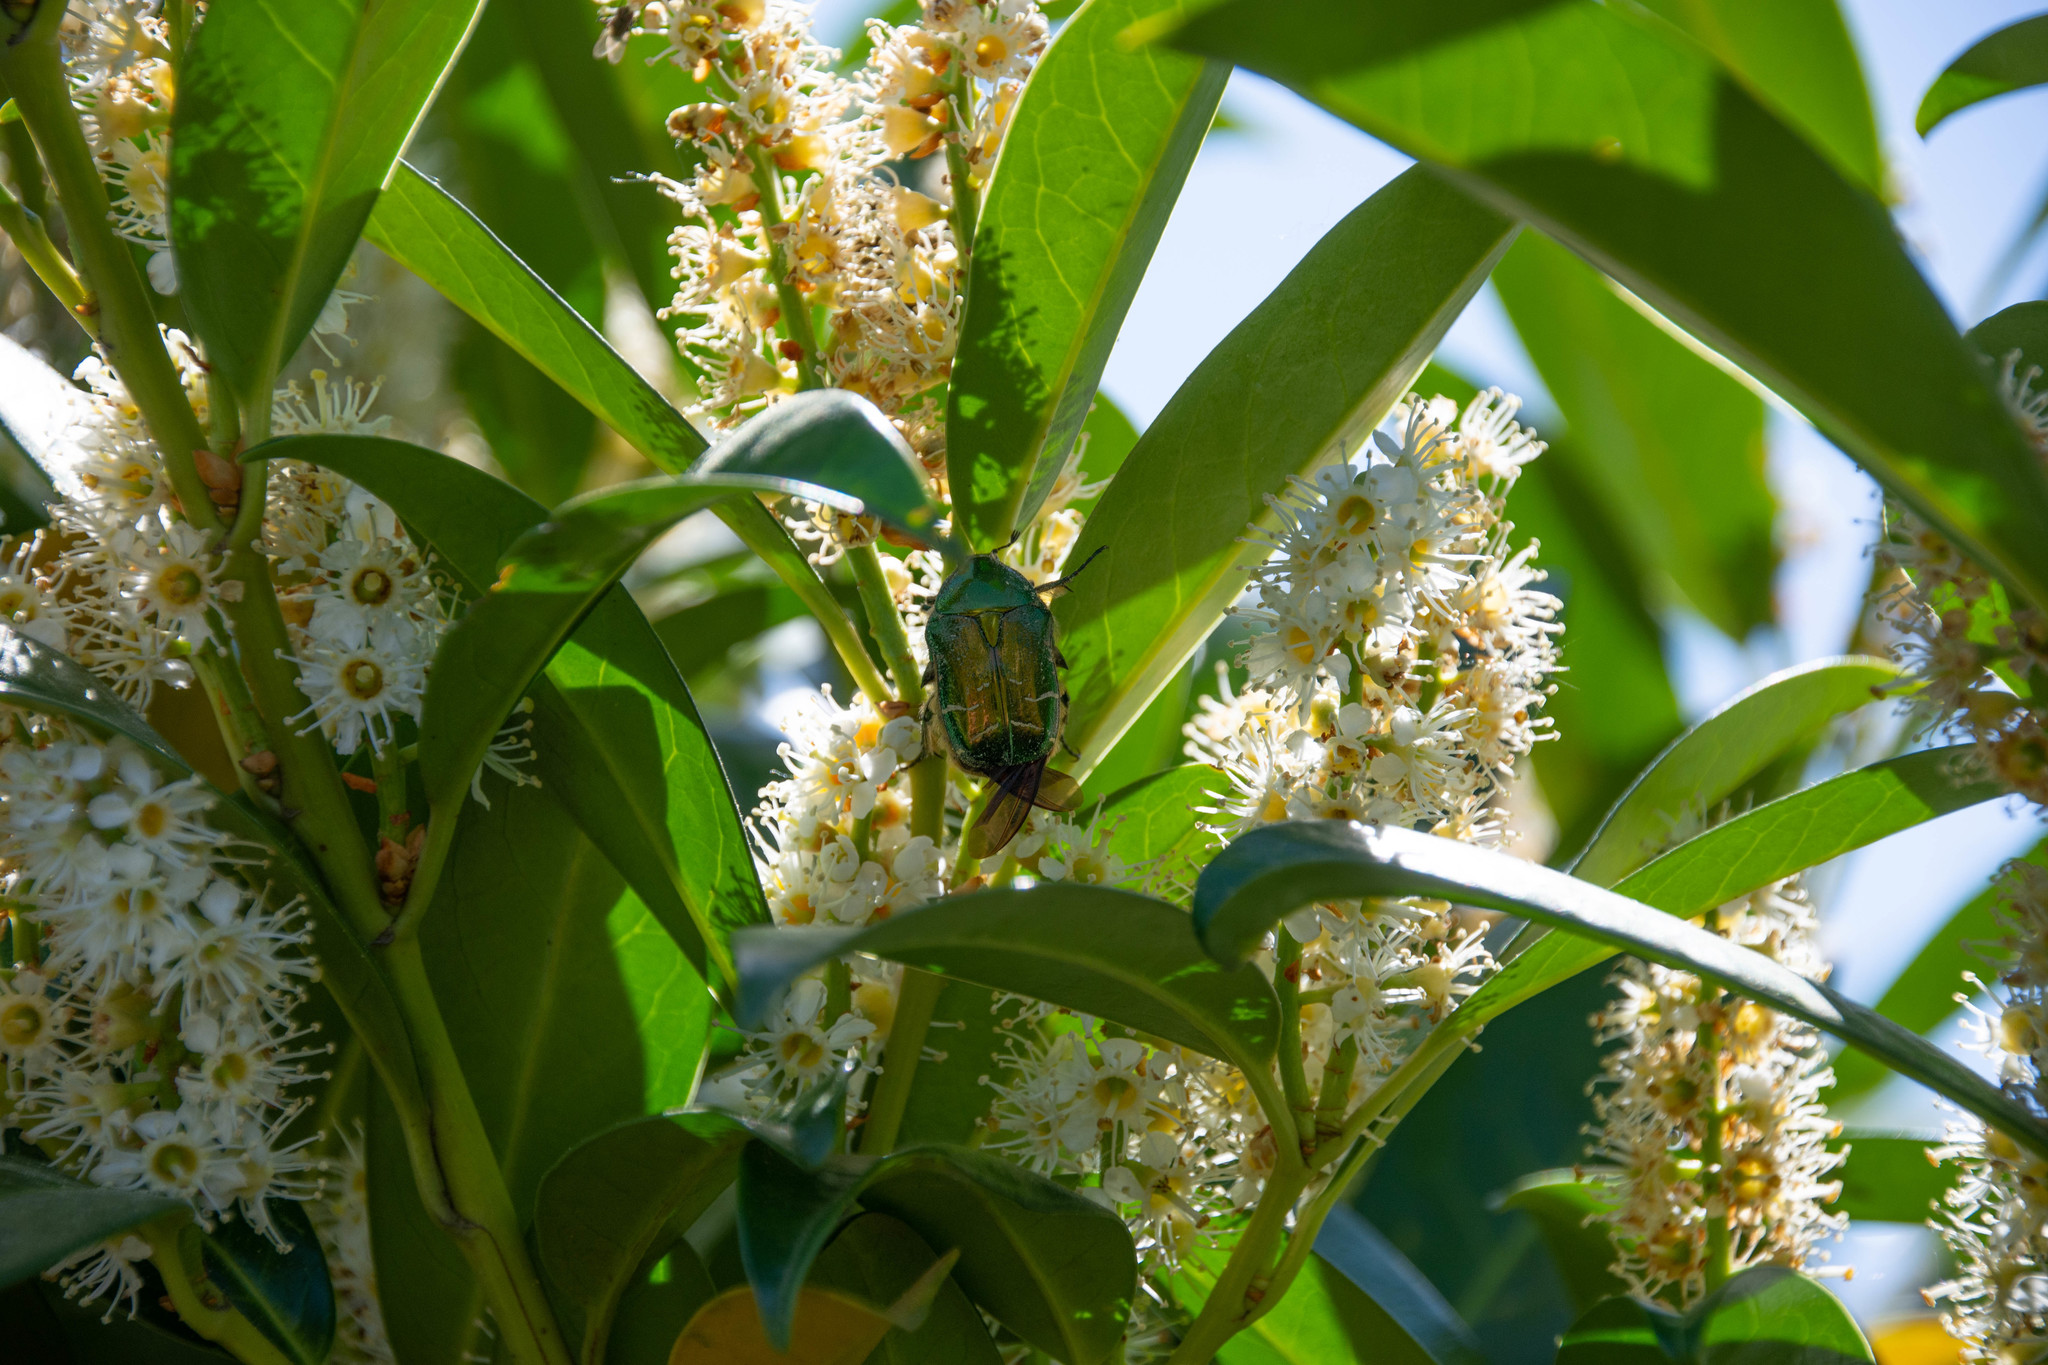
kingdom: Animalia
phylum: Arthropoda
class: Insecta
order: Coleoptera
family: Scarabaeidae
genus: Cetonia
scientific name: Cetonia aurata
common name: Rose chafer
